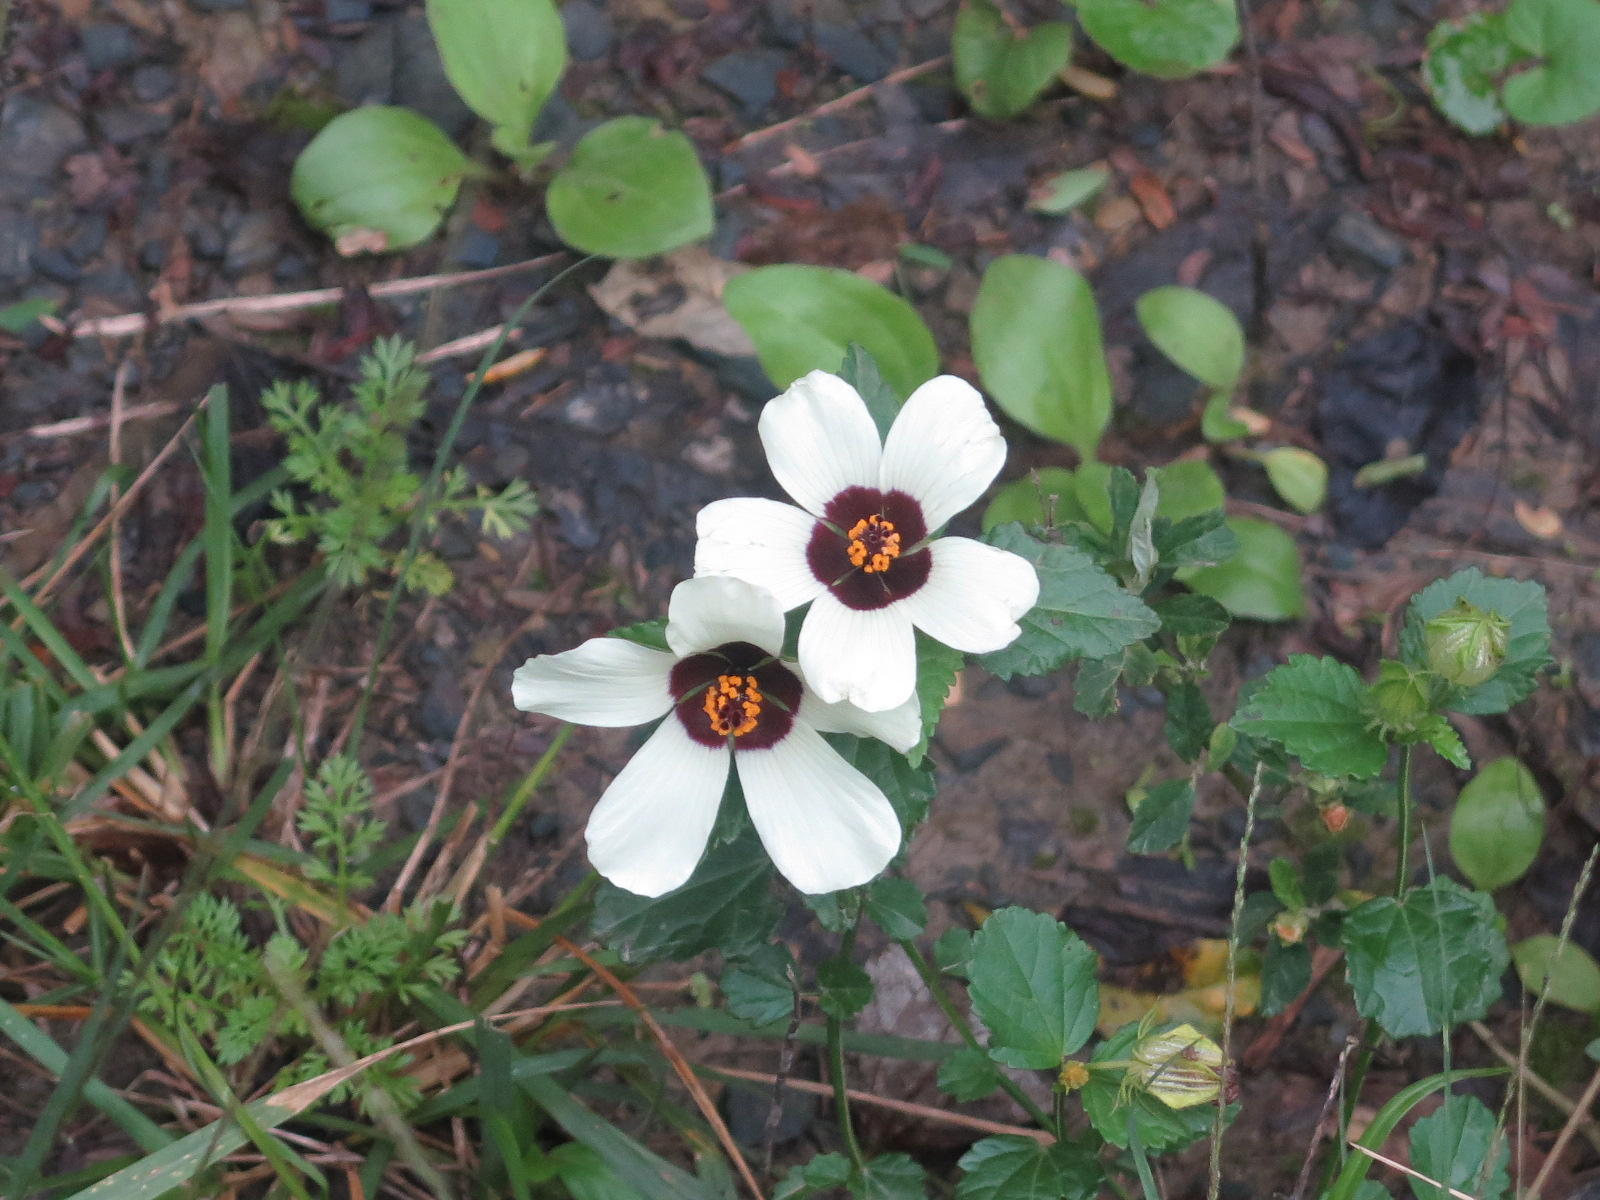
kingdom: Plantae
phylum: Tracheophyta
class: Magnoliopsida
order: Malvales
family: Malvaceae
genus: Hibiscus
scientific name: Hibiscus trionum
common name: Bladder ketmia
